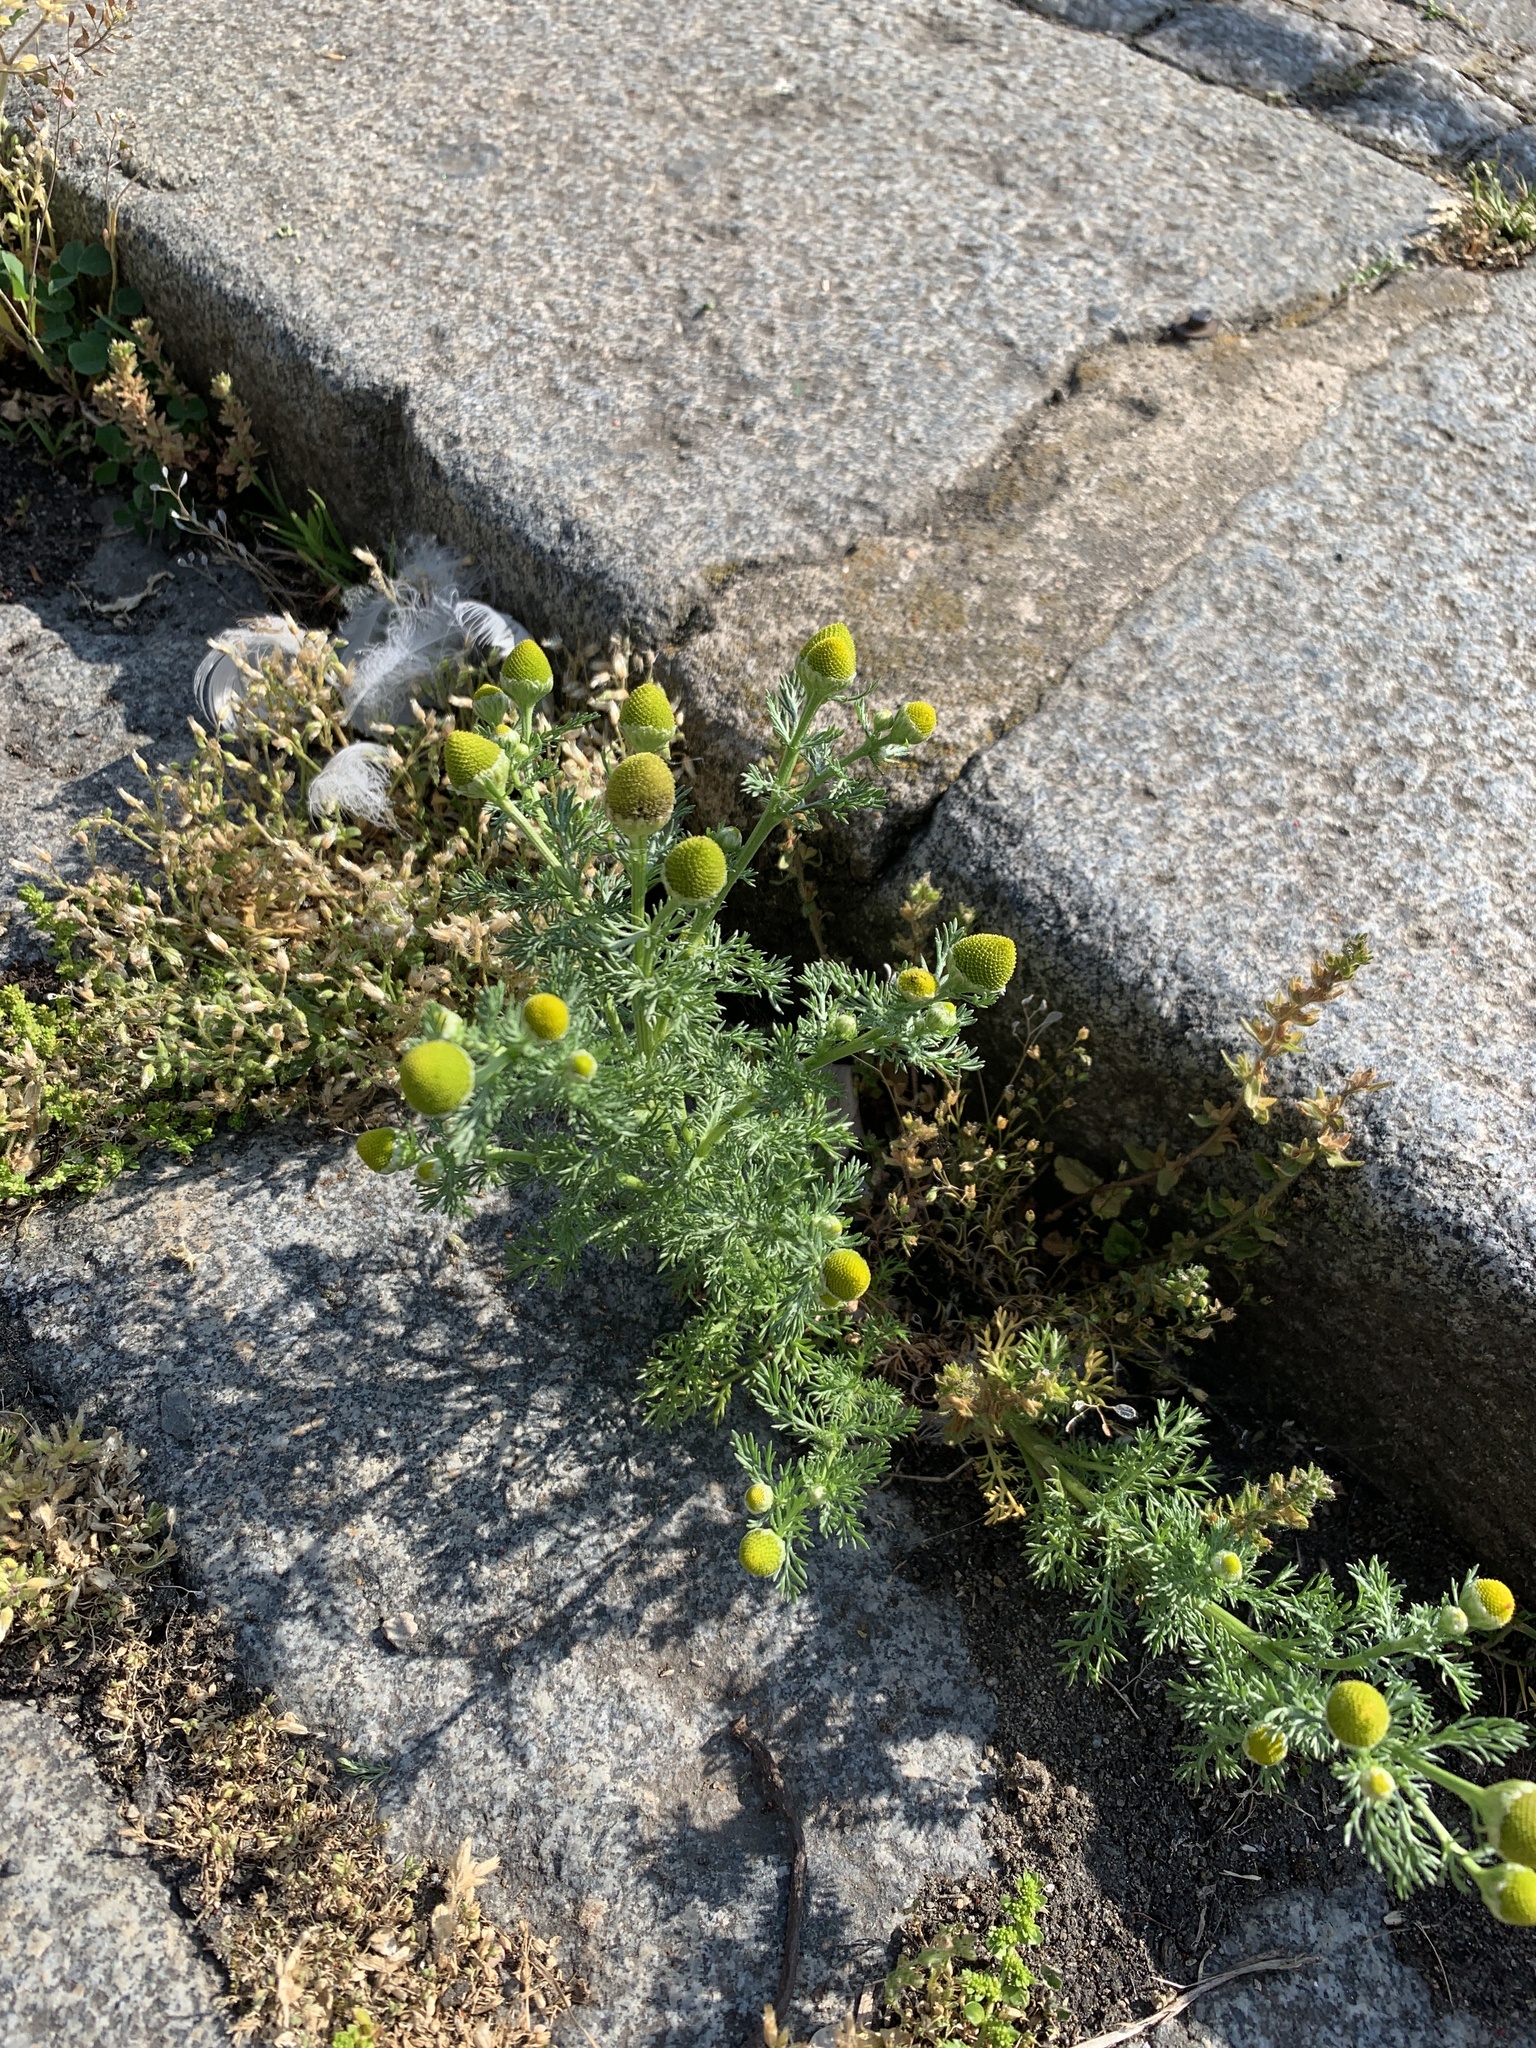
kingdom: Plantae
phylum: Tracheophyta
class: Magnoliopsida
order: Asterales
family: Asteraceae
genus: Matricaria
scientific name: Matricaria discoidea
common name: Disc mayweed
